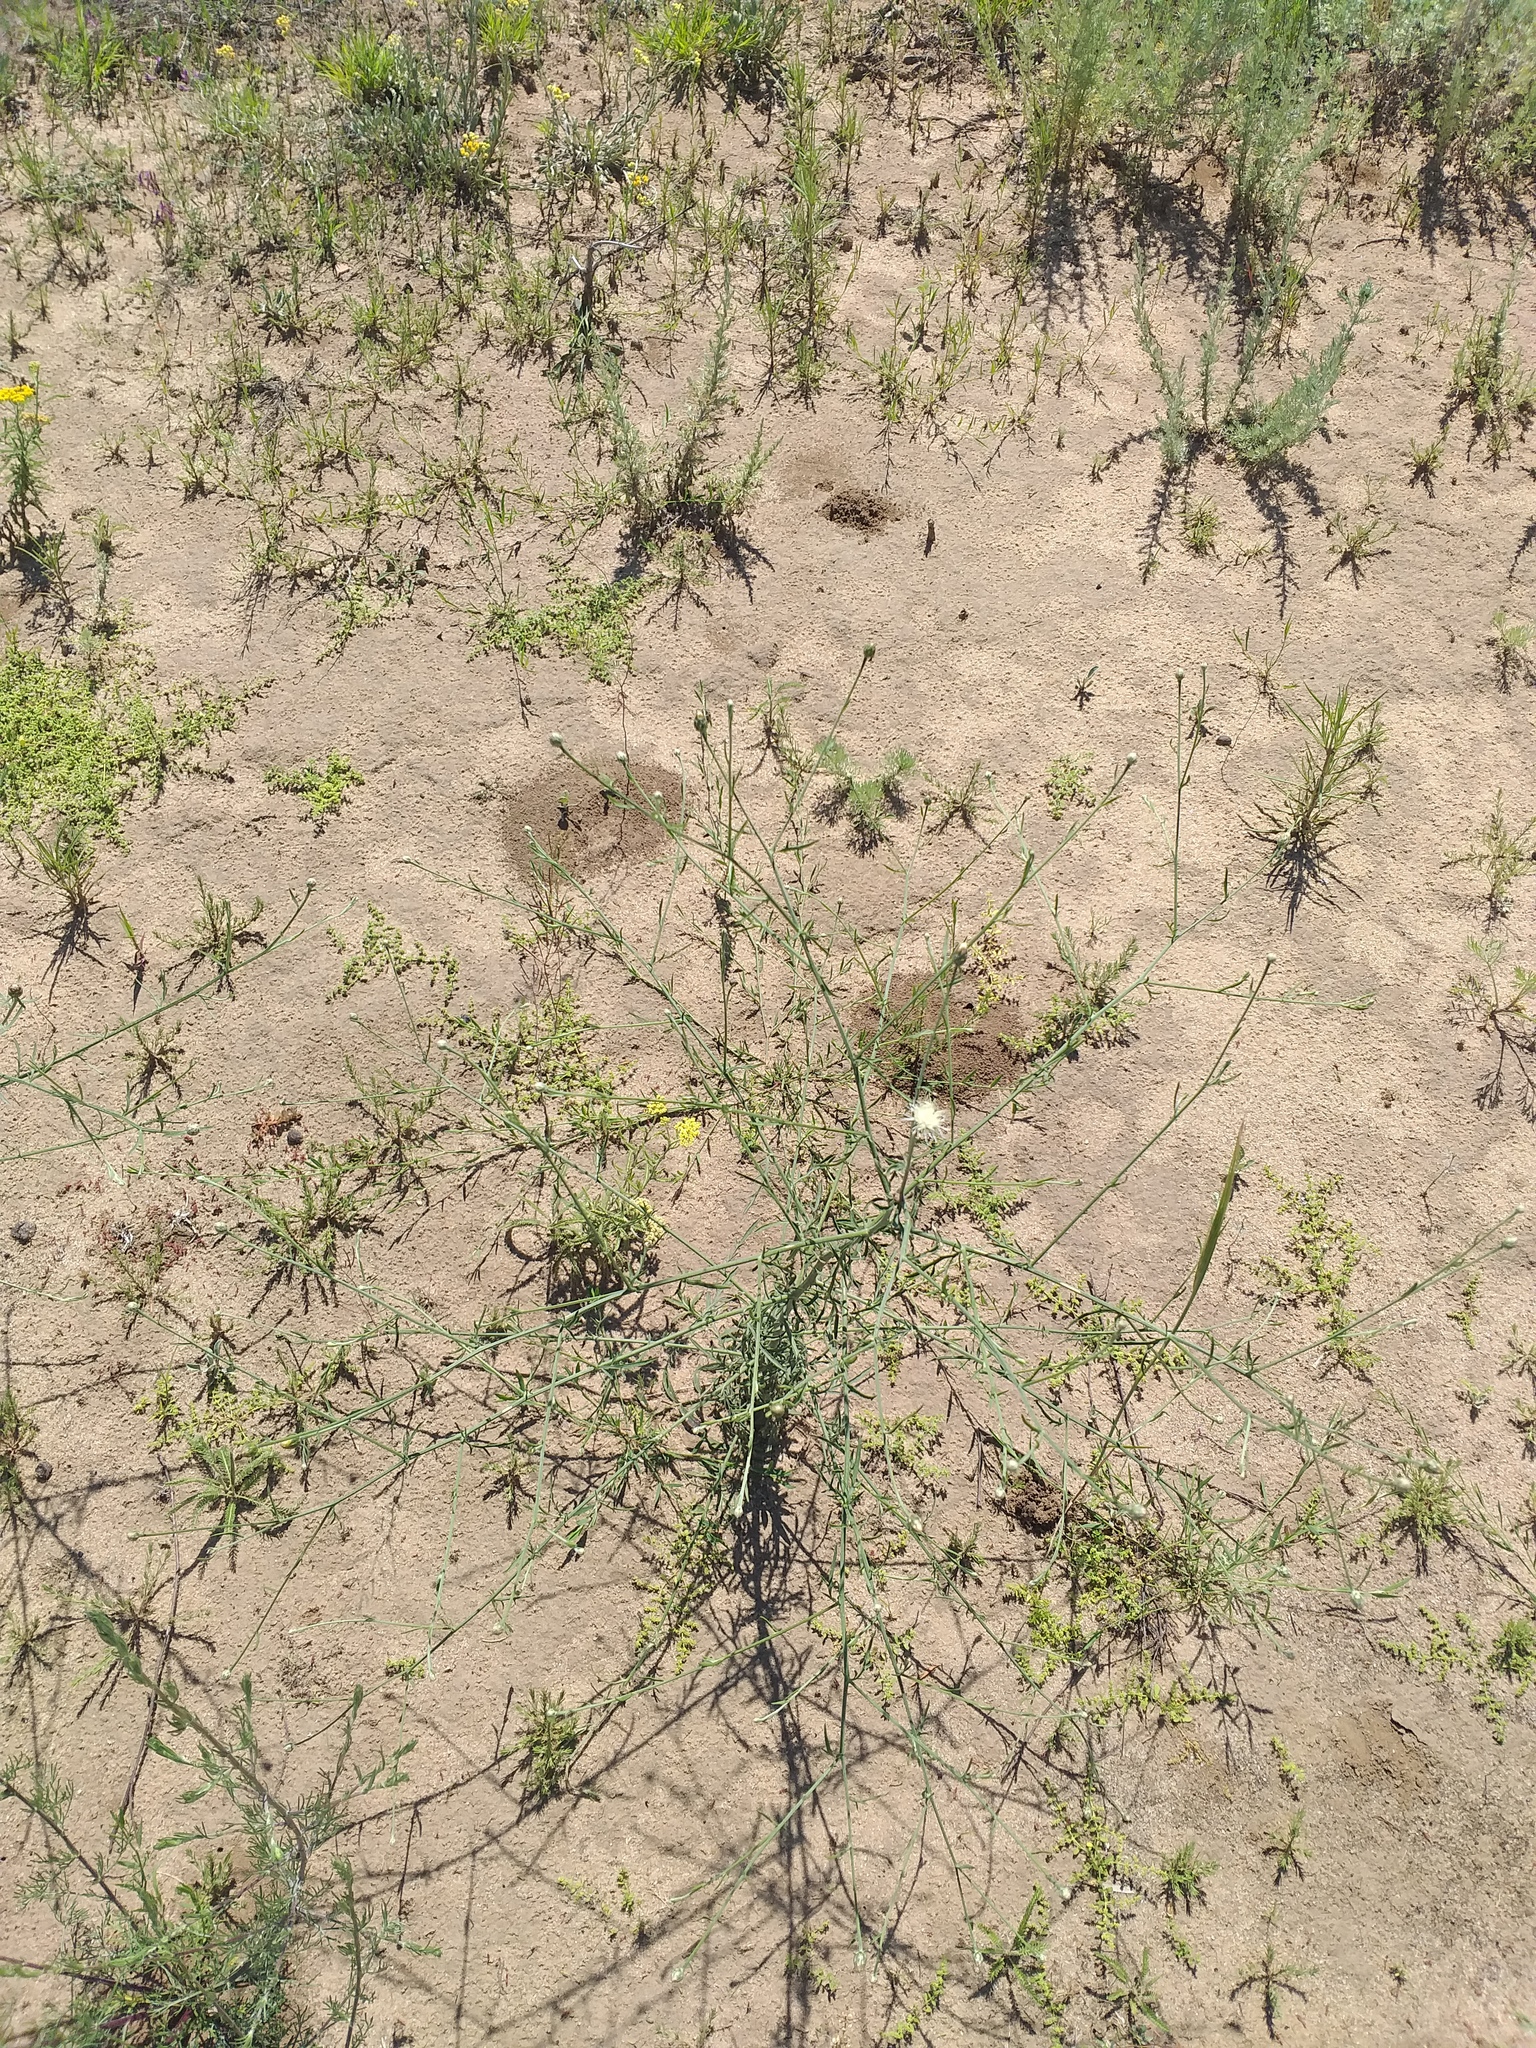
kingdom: Plantae
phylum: Tracheophyta
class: Magnoliopsida
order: Asterales
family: Asteraceae
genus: Centaurea
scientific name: Centaurea arenaria
